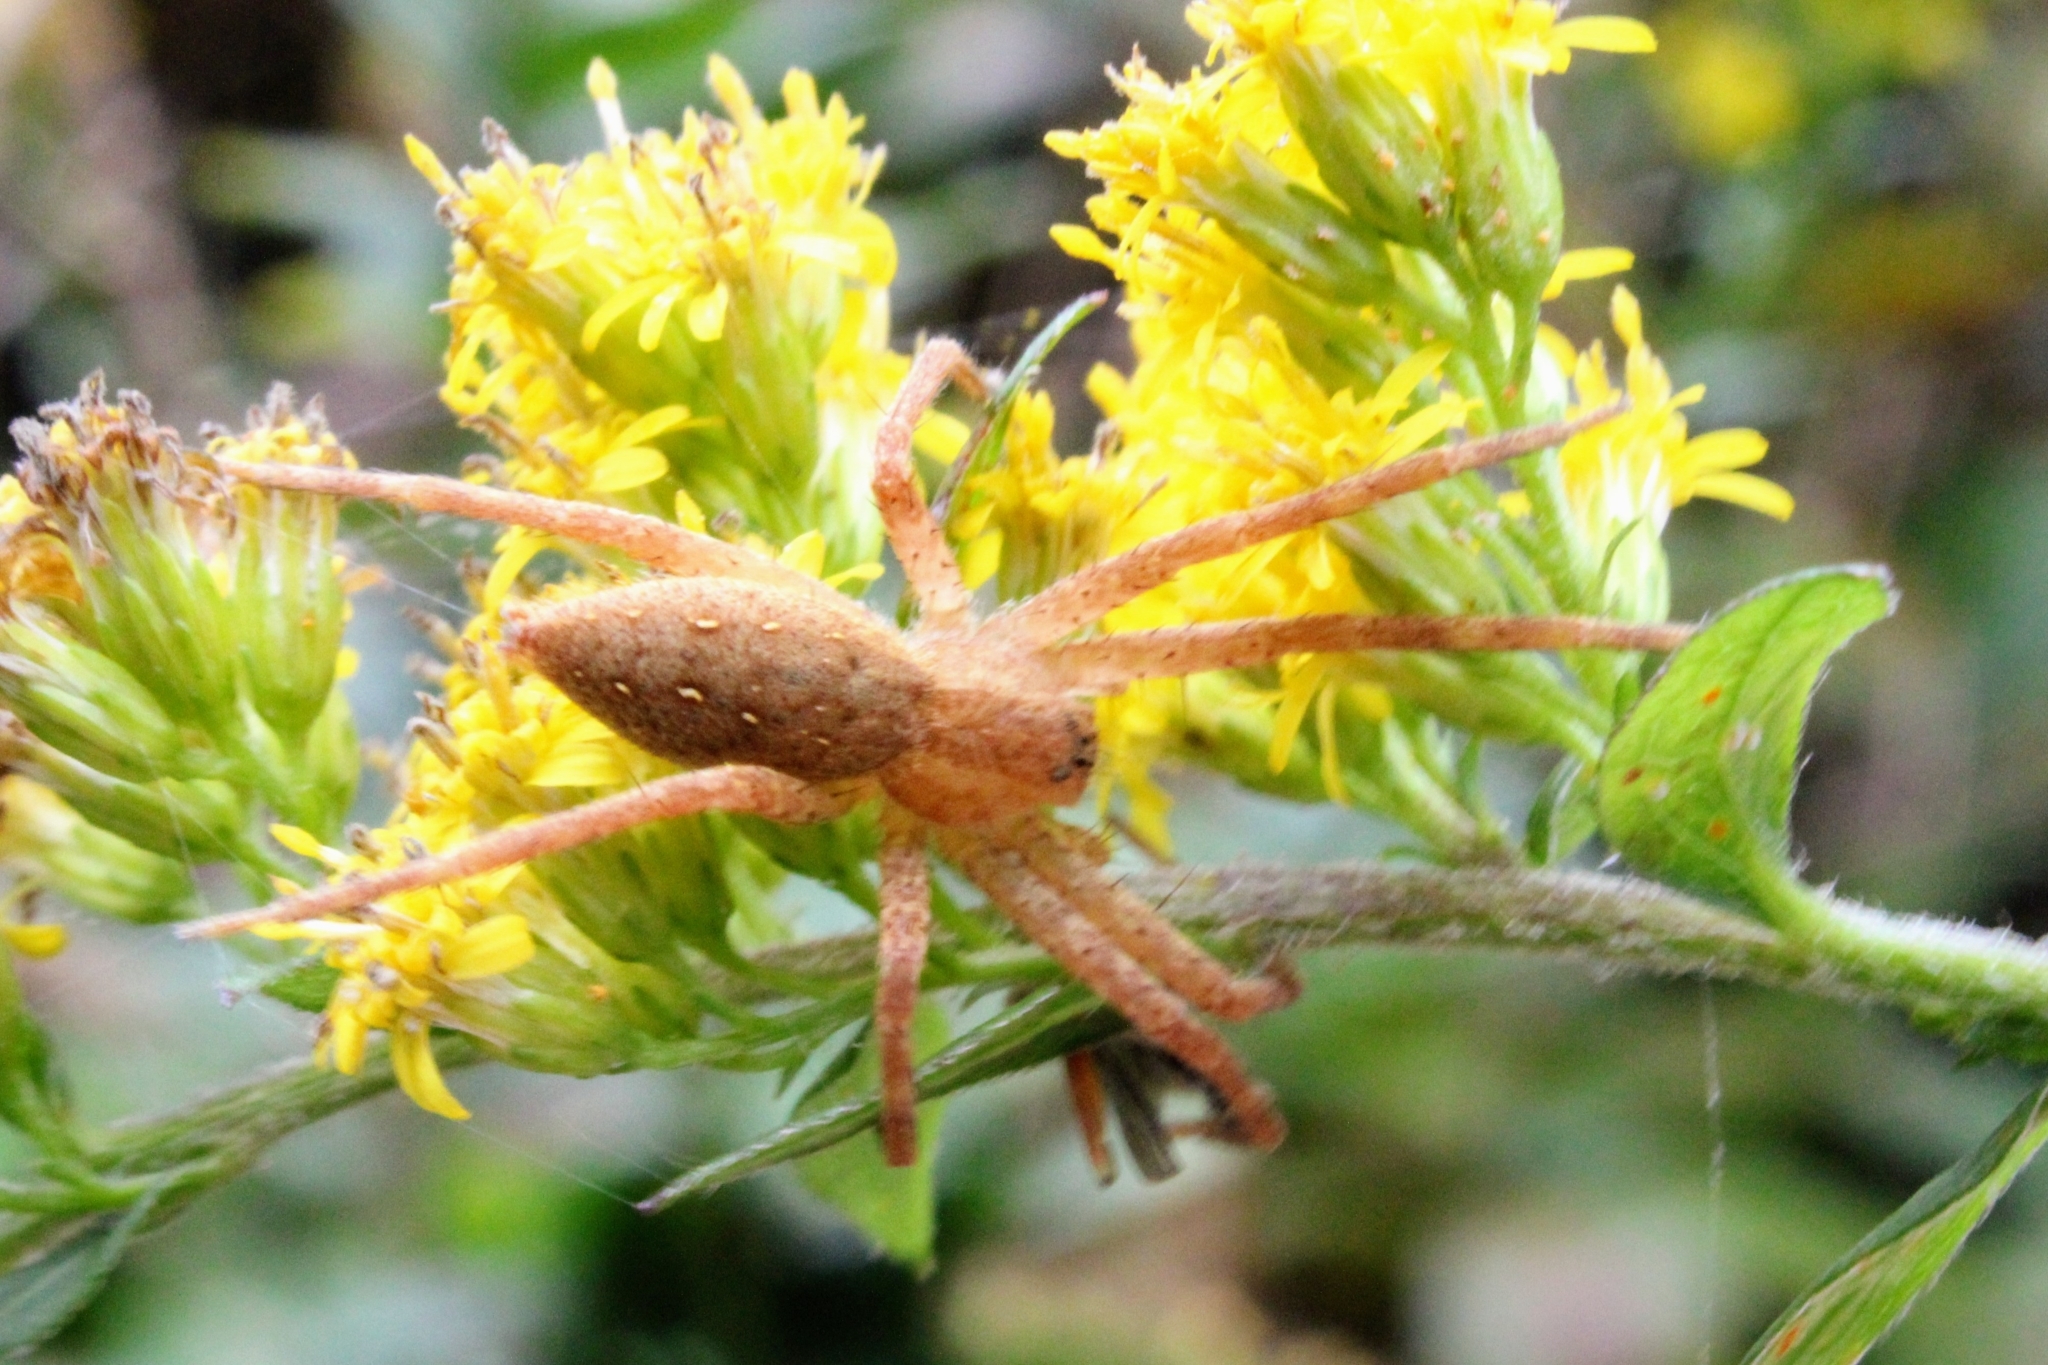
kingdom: Animalia
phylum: Arthropoda
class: Arachnida
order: Araneae
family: Pisauridae
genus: Pisaurina
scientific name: Pisaurina mira
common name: American nursery web spider
